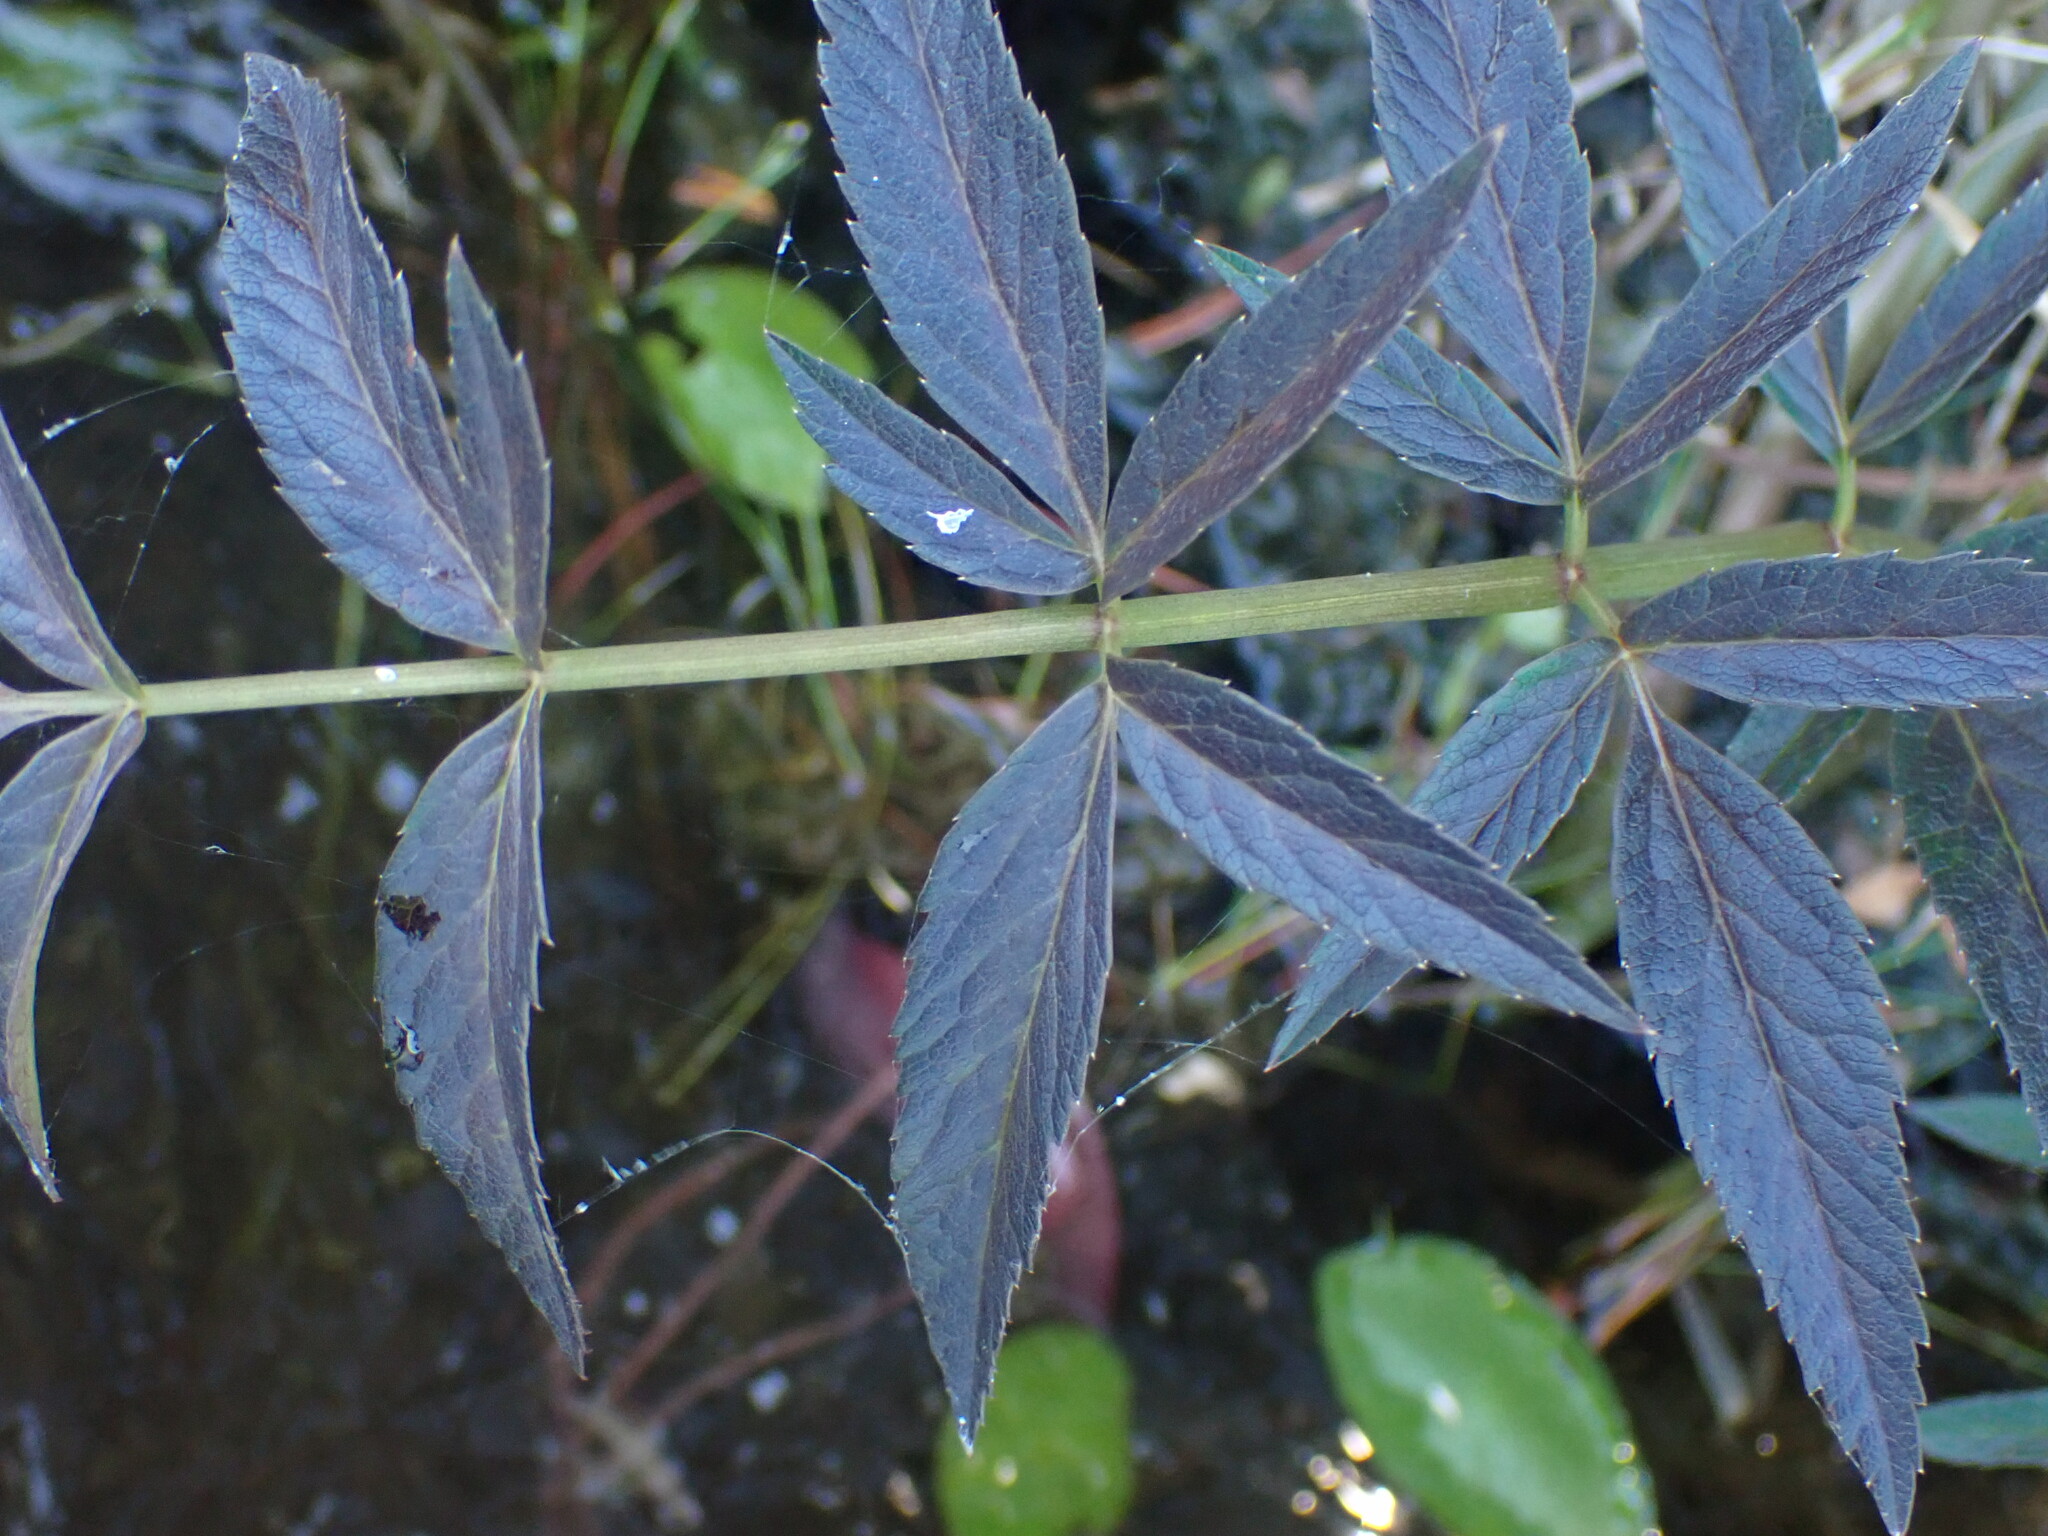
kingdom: Plantae
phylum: Tracheophyta
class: Magnoliopsida
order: Apiales
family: Apiaceae
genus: Cicuta
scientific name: Cicuta douglasii
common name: Western water-hemlock
